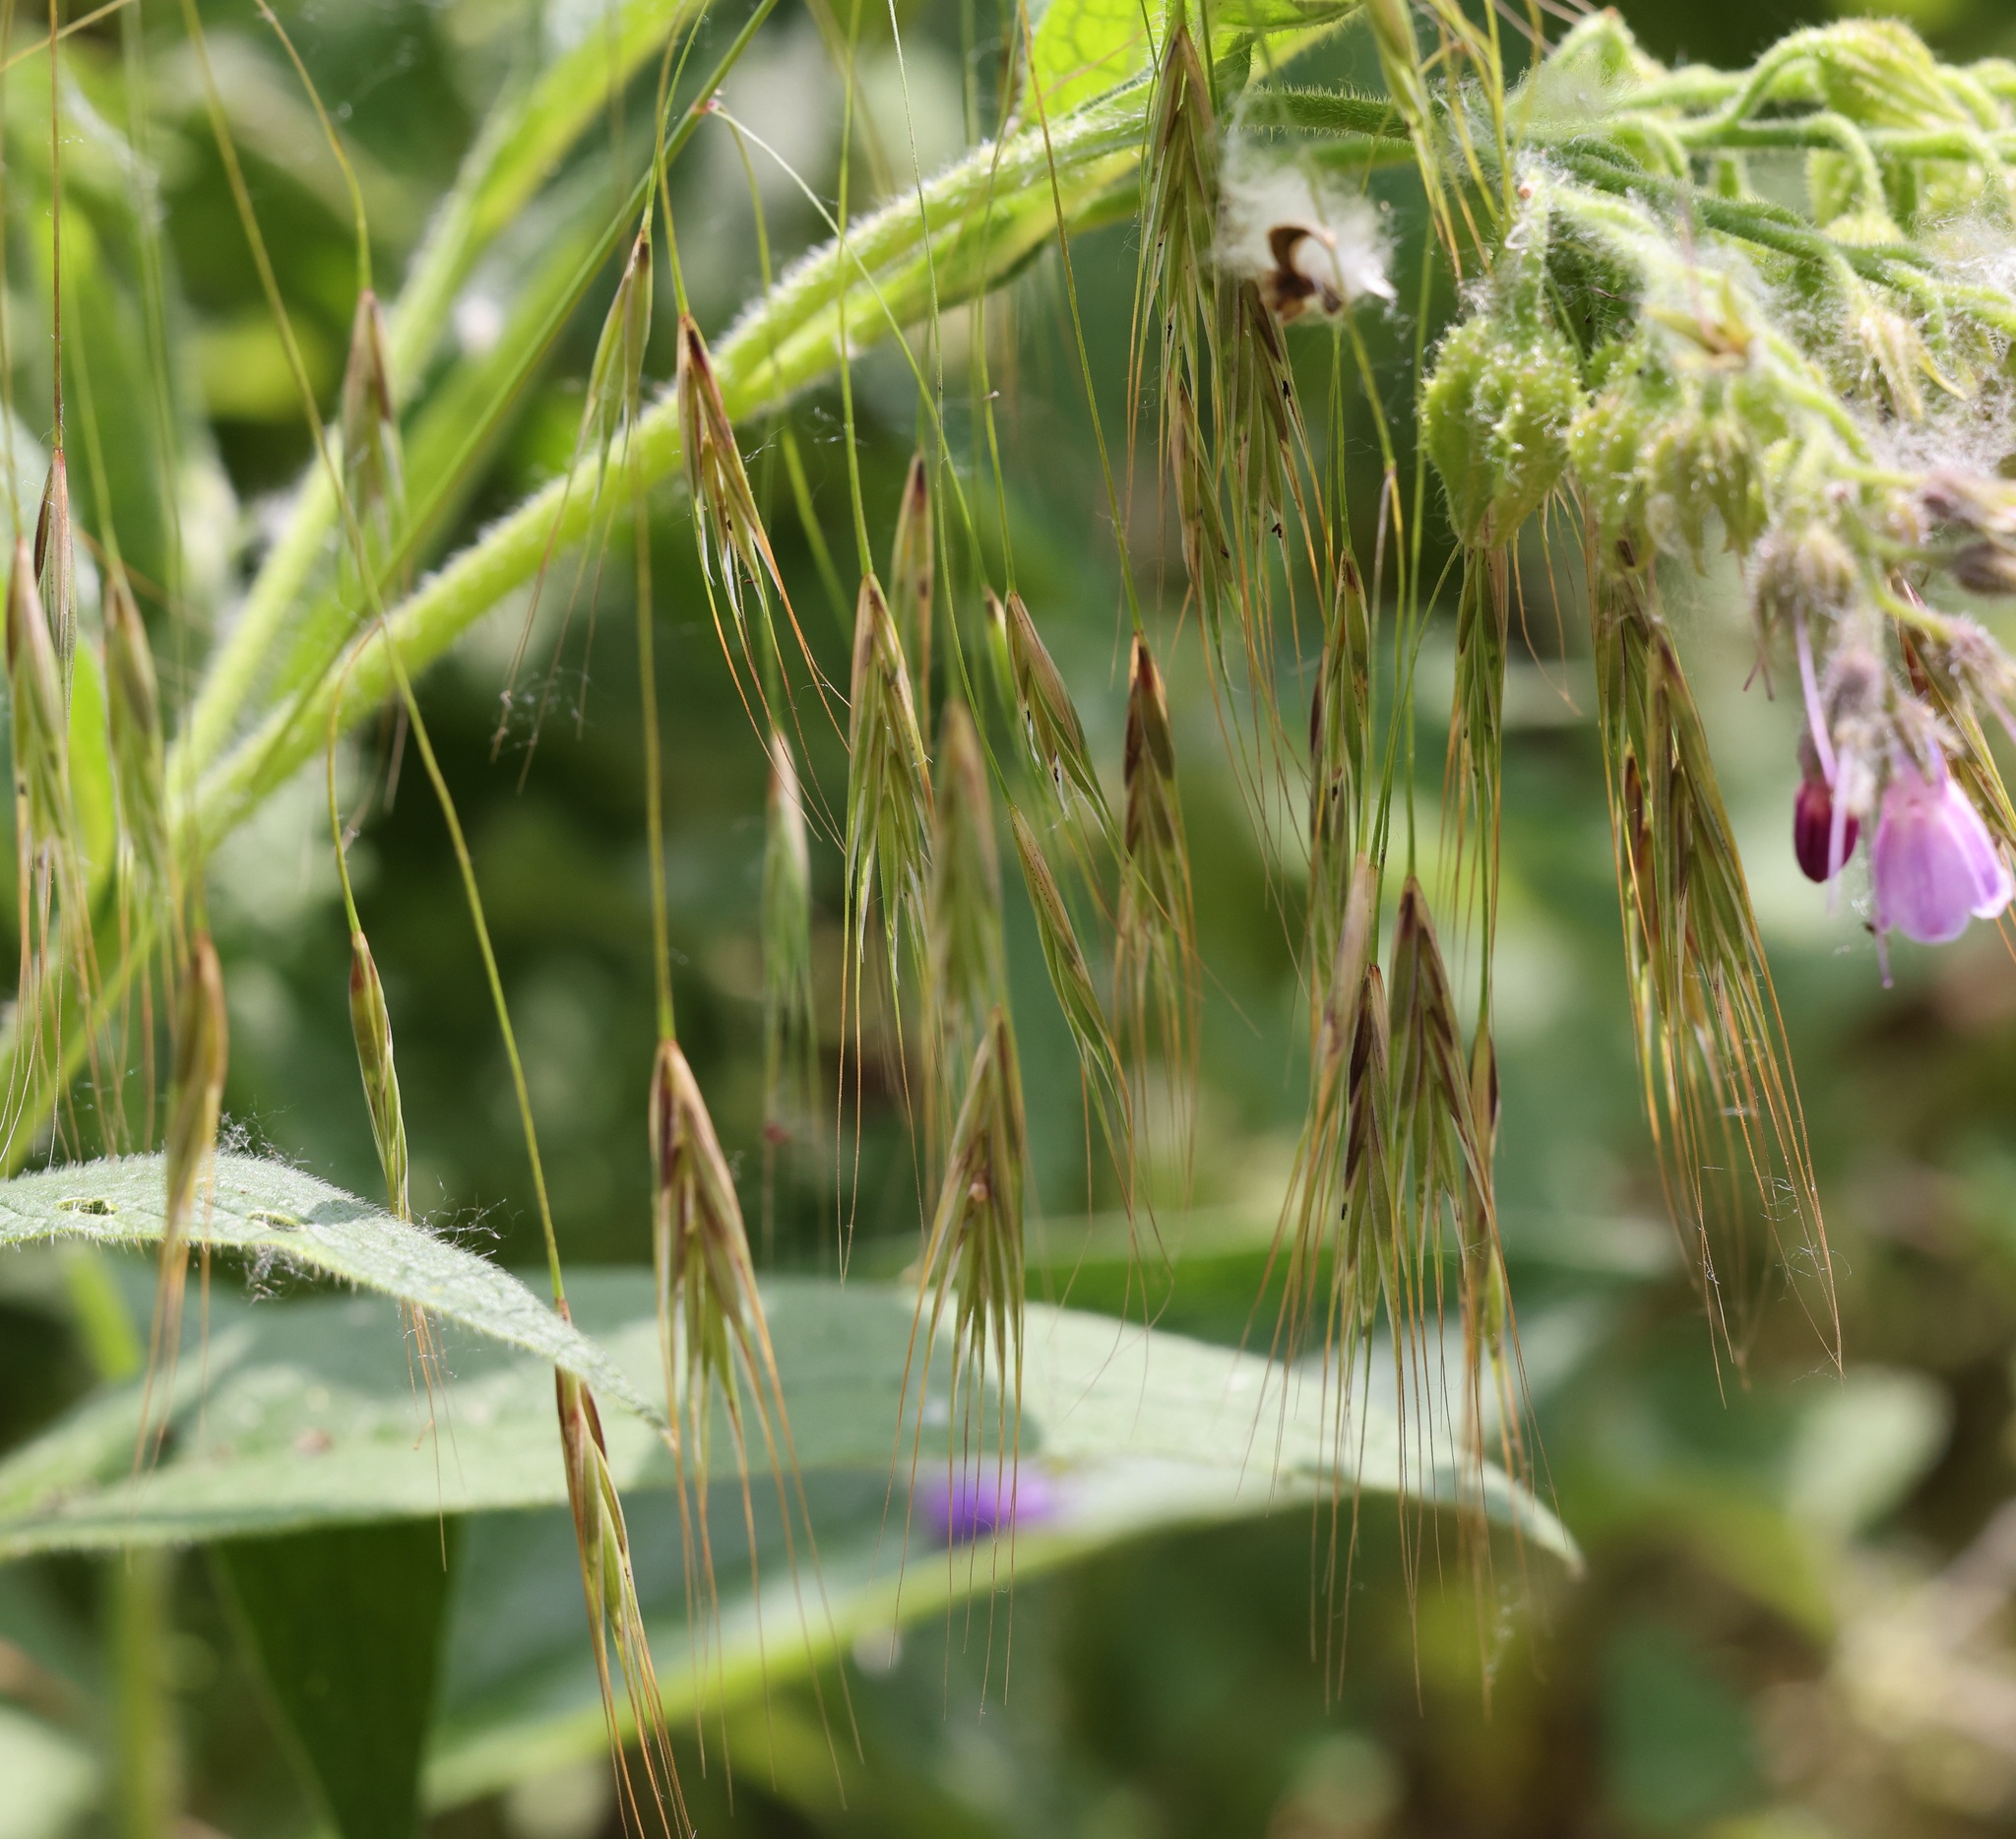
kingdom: Plantae
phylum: Tracheophyta
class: Liliopsida
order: Poales
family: Poaceae
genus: Bromus
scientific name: Bromus sterilis
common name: Poverty brome
